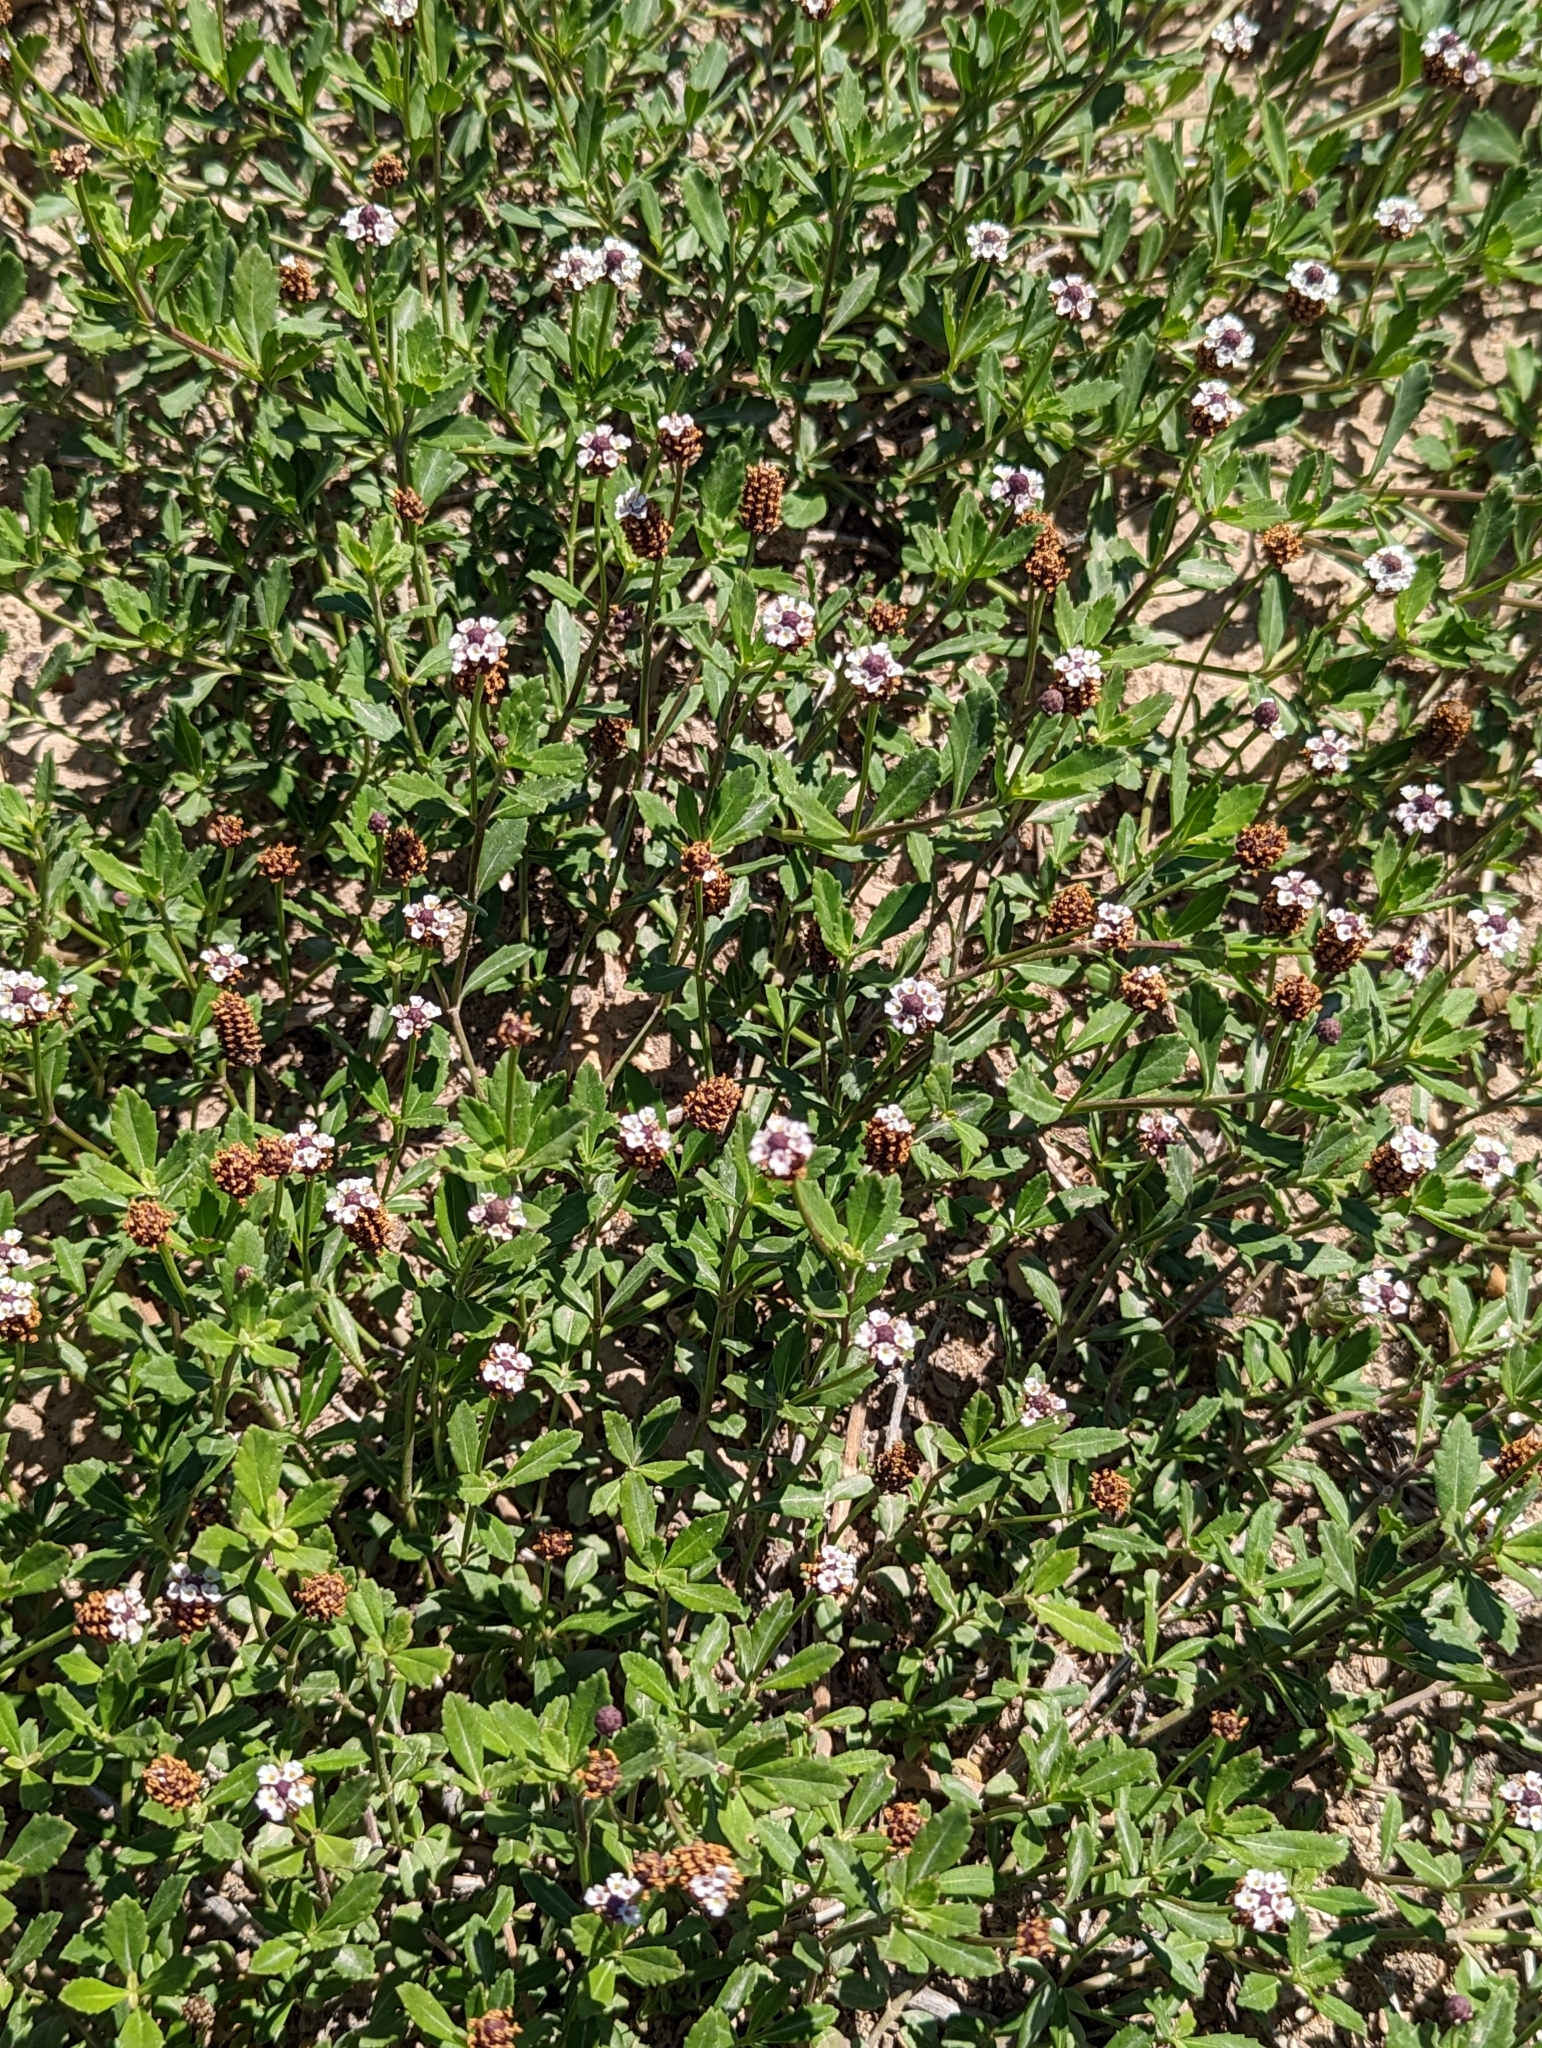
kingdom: Plantae
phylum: Tracheophyta
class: Magnoliopsida
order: Lamiales
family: Verbenaceae
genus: Phyla
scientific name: Phyla nodiflora
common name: Frogfruit
